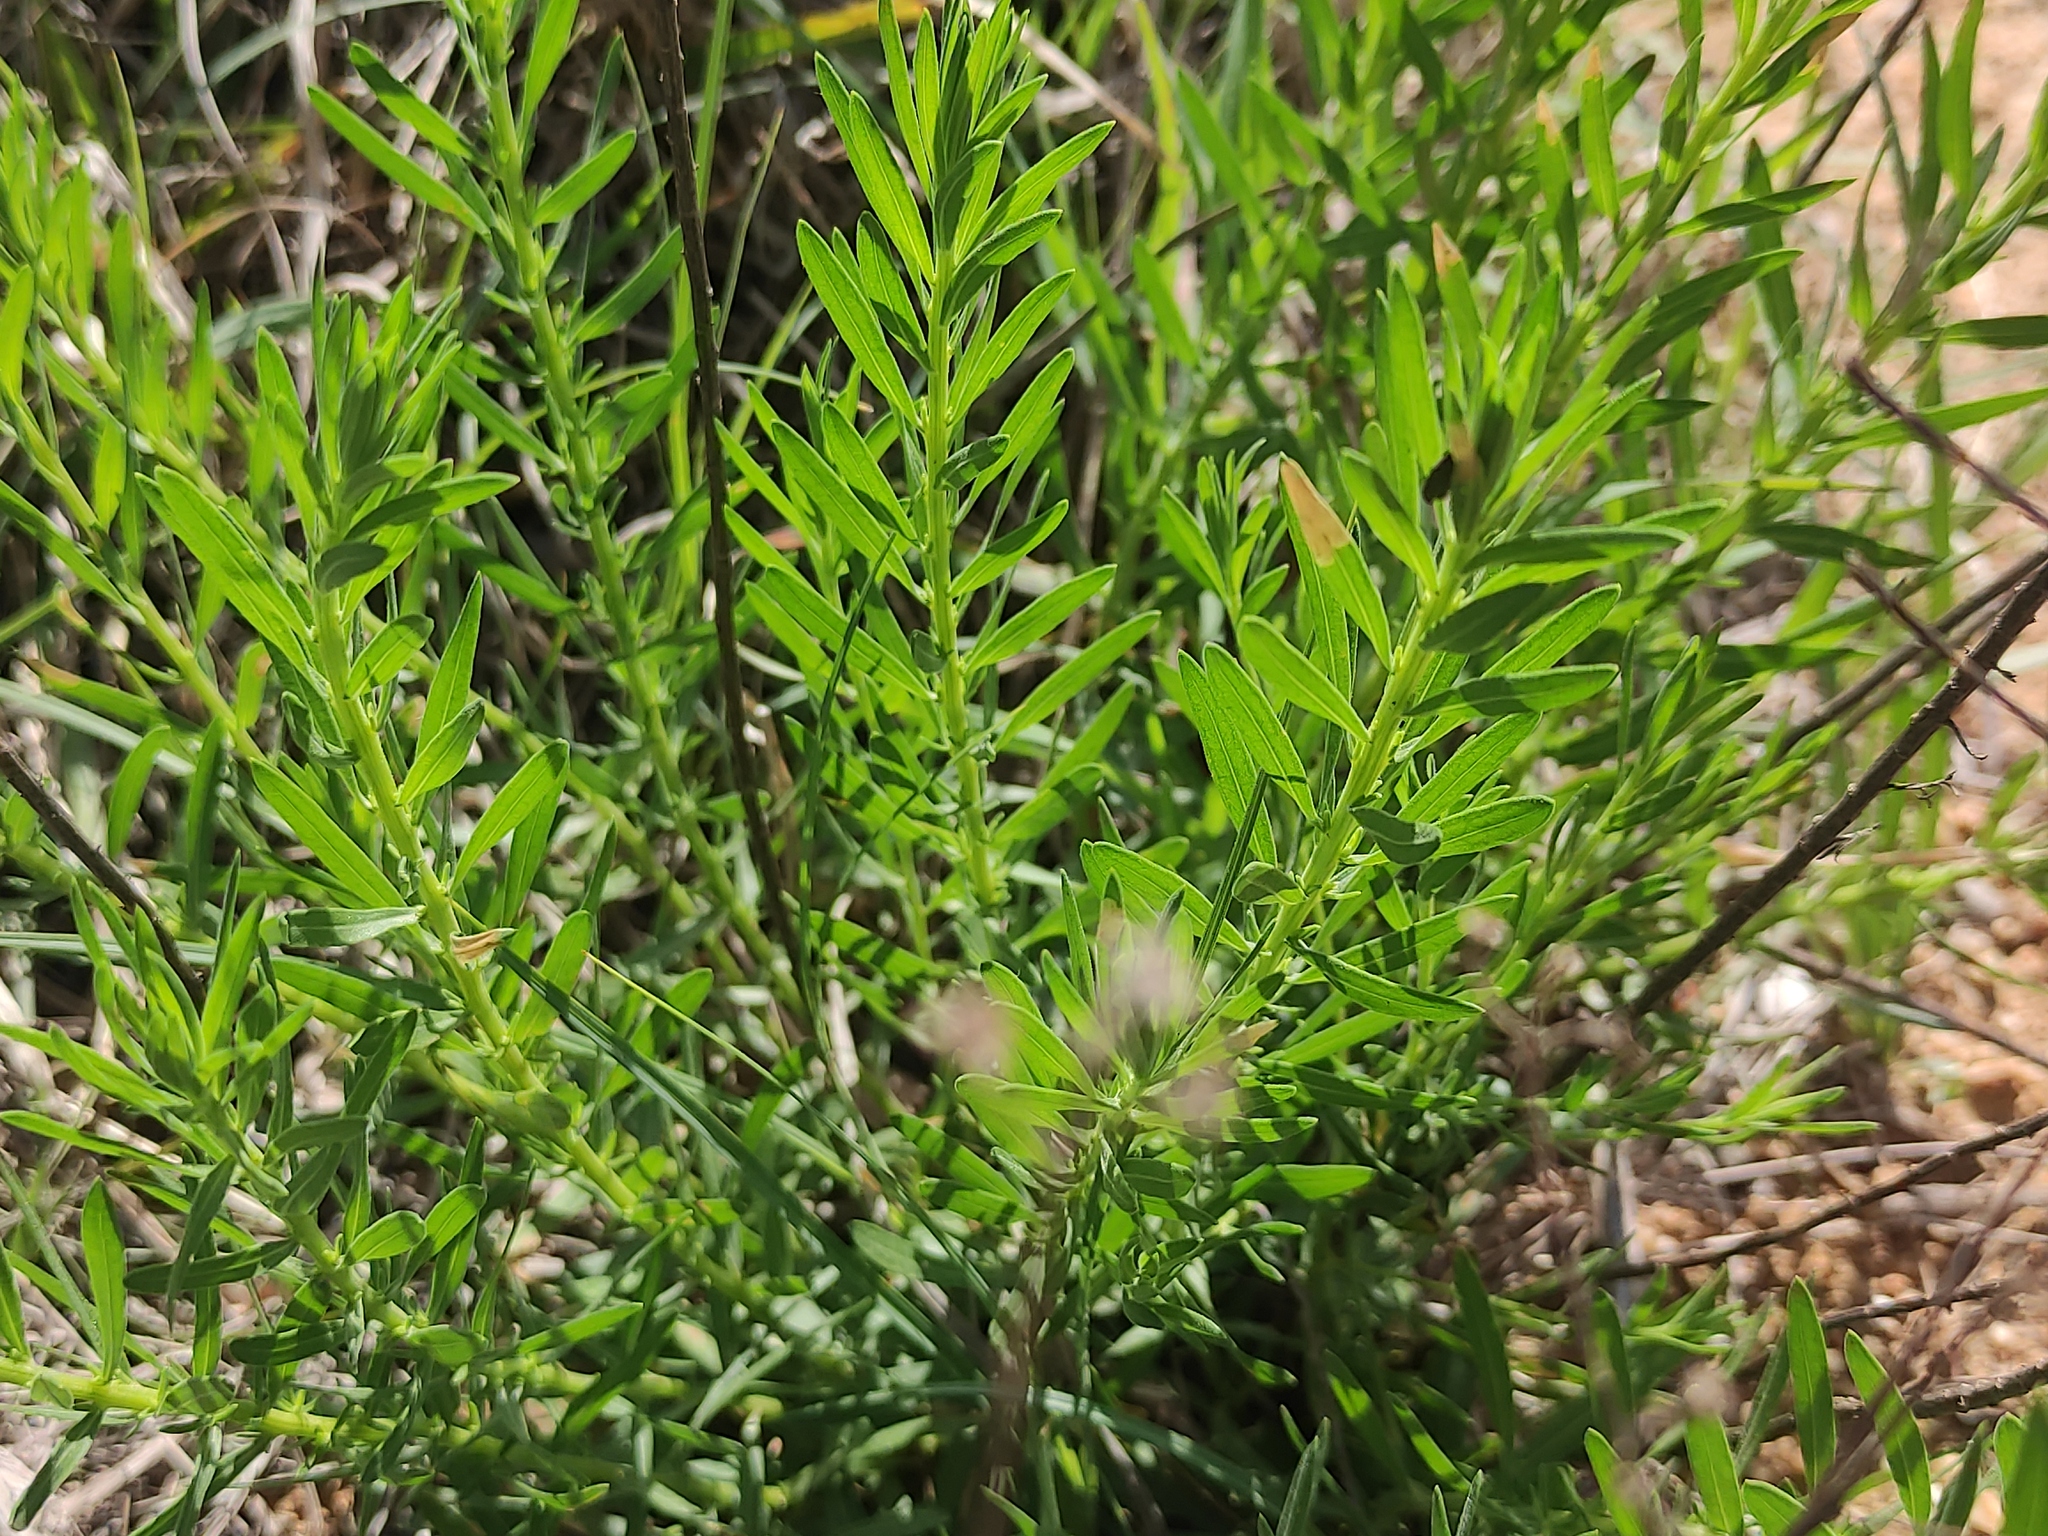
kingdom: Plantae
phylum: Tracheophyta
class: Magnoliopsida
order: Asterales
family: Asteraceae
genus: Galatella
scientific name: Galatella sedifolia
